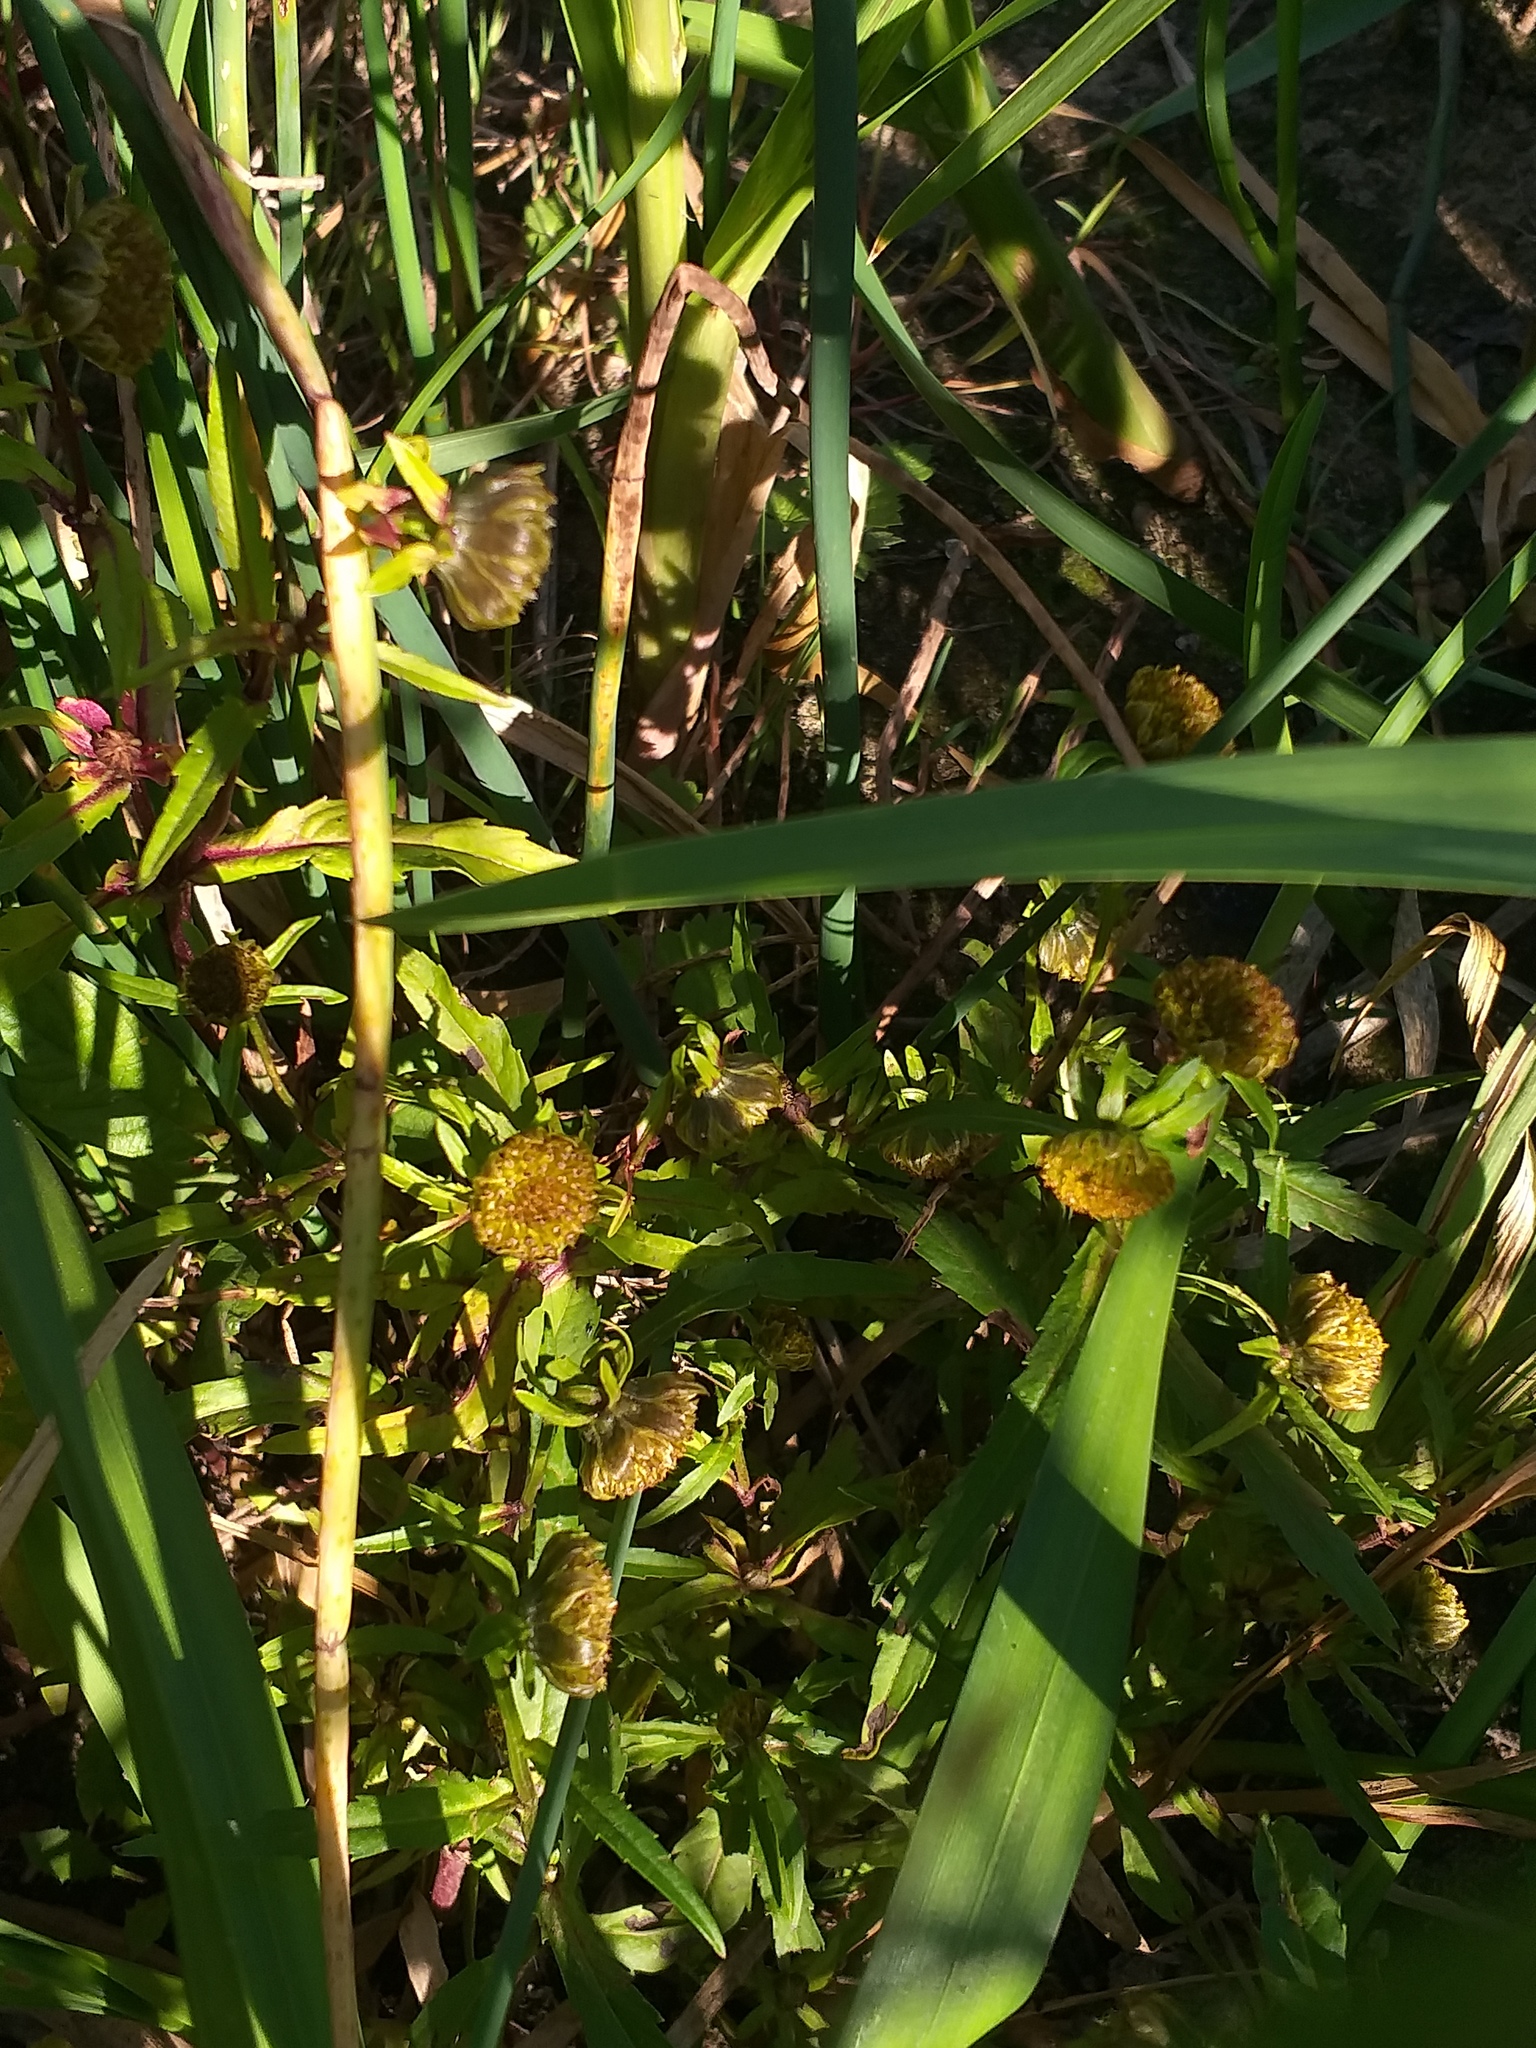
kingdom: Plantae
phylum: Tracheophyta
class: Magnoliopsida
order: Asterales
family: Asteraceae
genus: Bidens
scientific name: Bidens cernua
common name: Nodding bur-marigold
